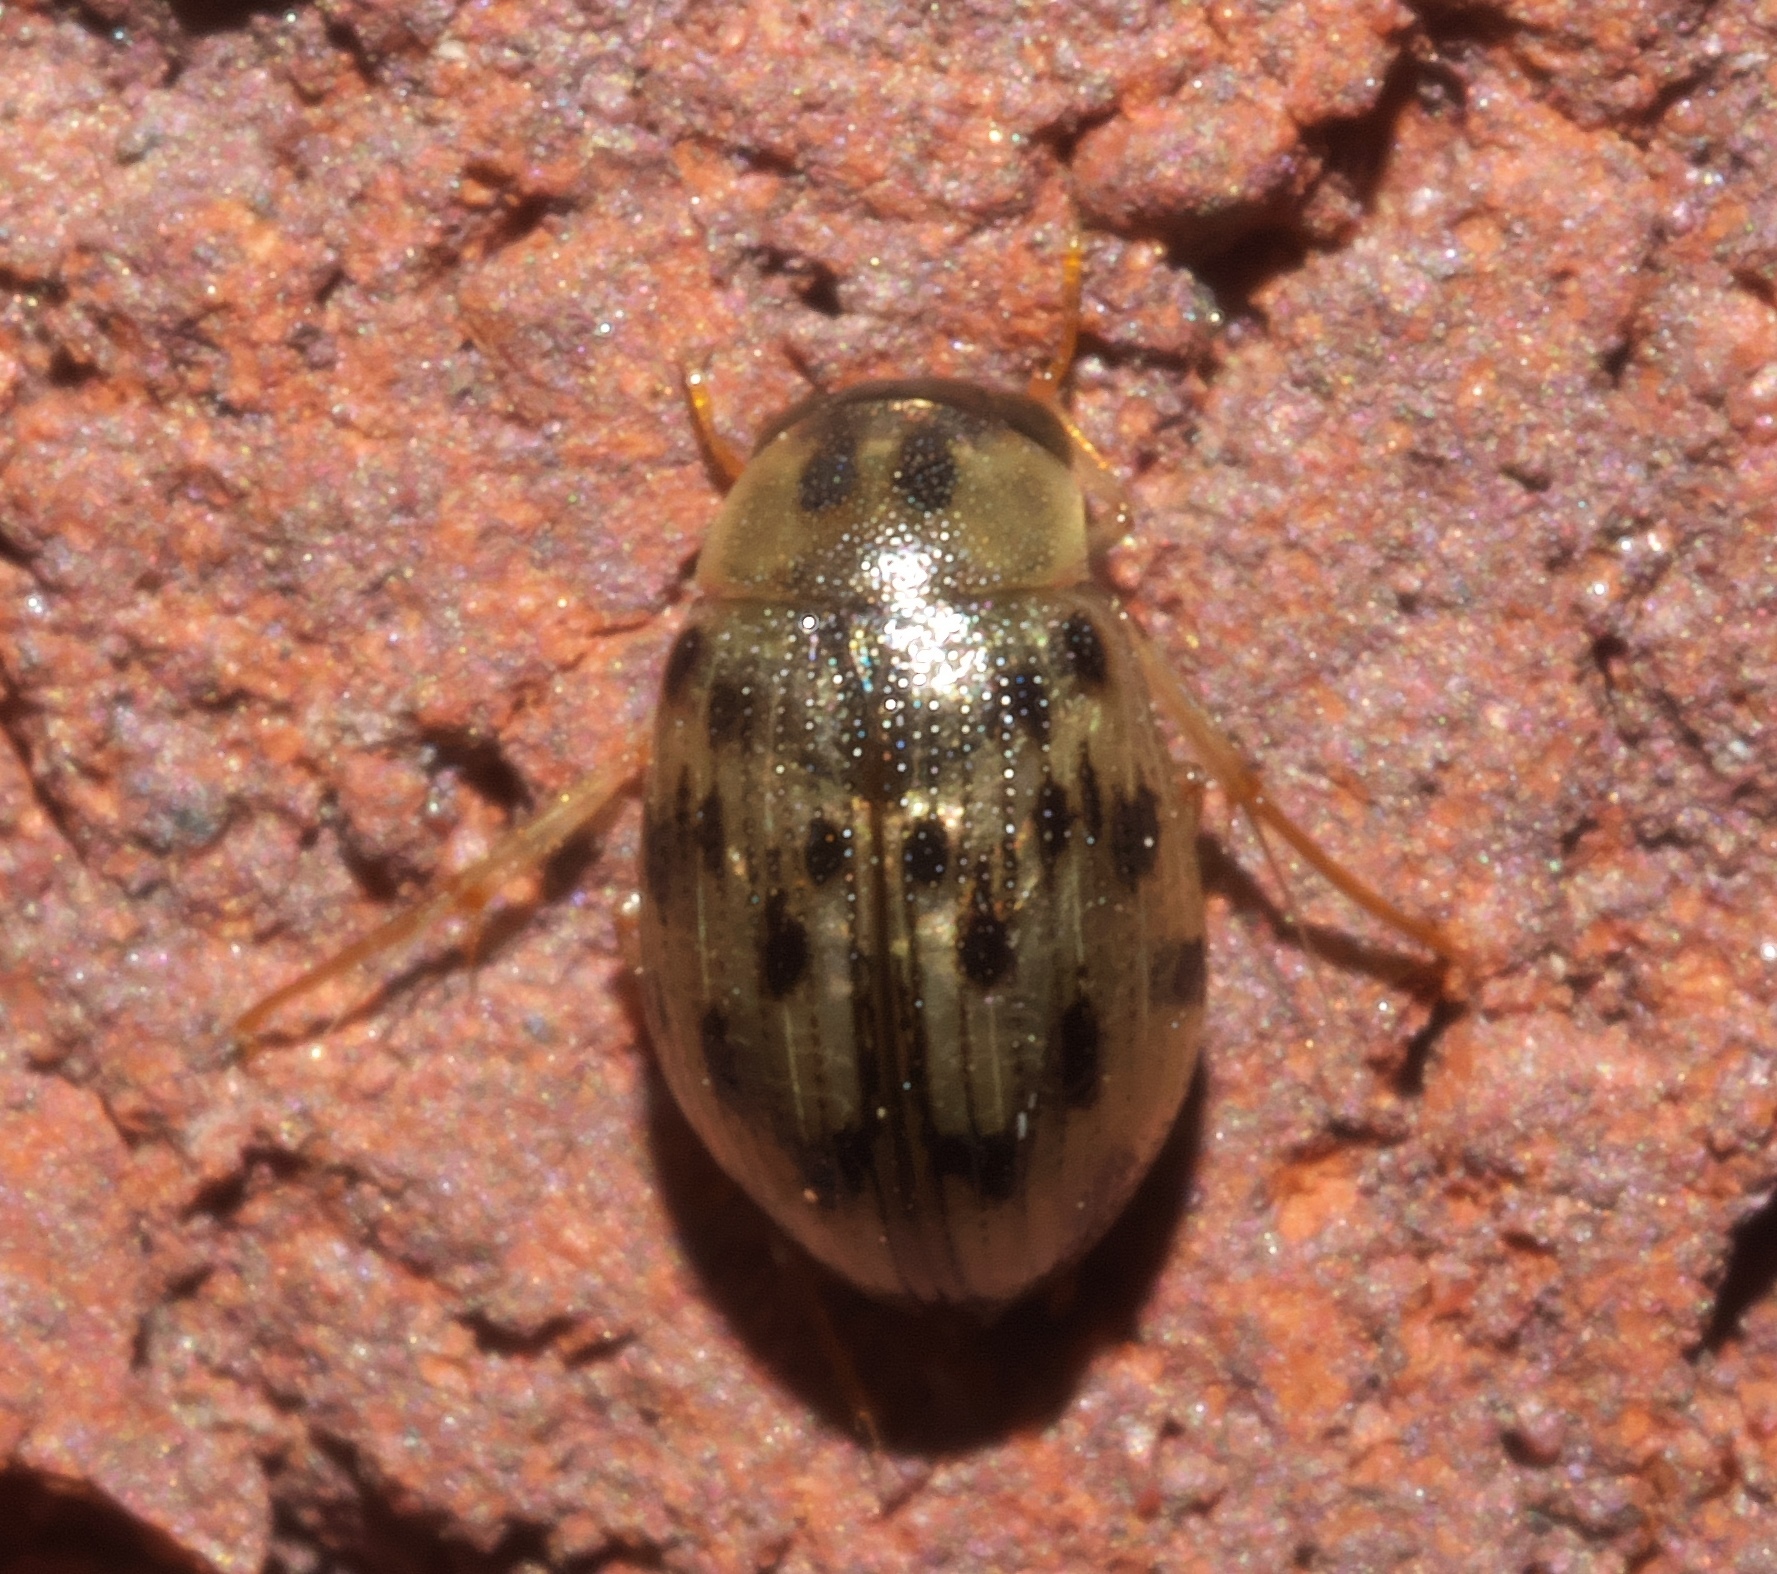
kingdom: Animalia
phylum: Arthropoda
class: Insecta
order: Coleoptera
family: Hydrophilidae
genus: Berosus
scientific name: Berosus pantherinus
